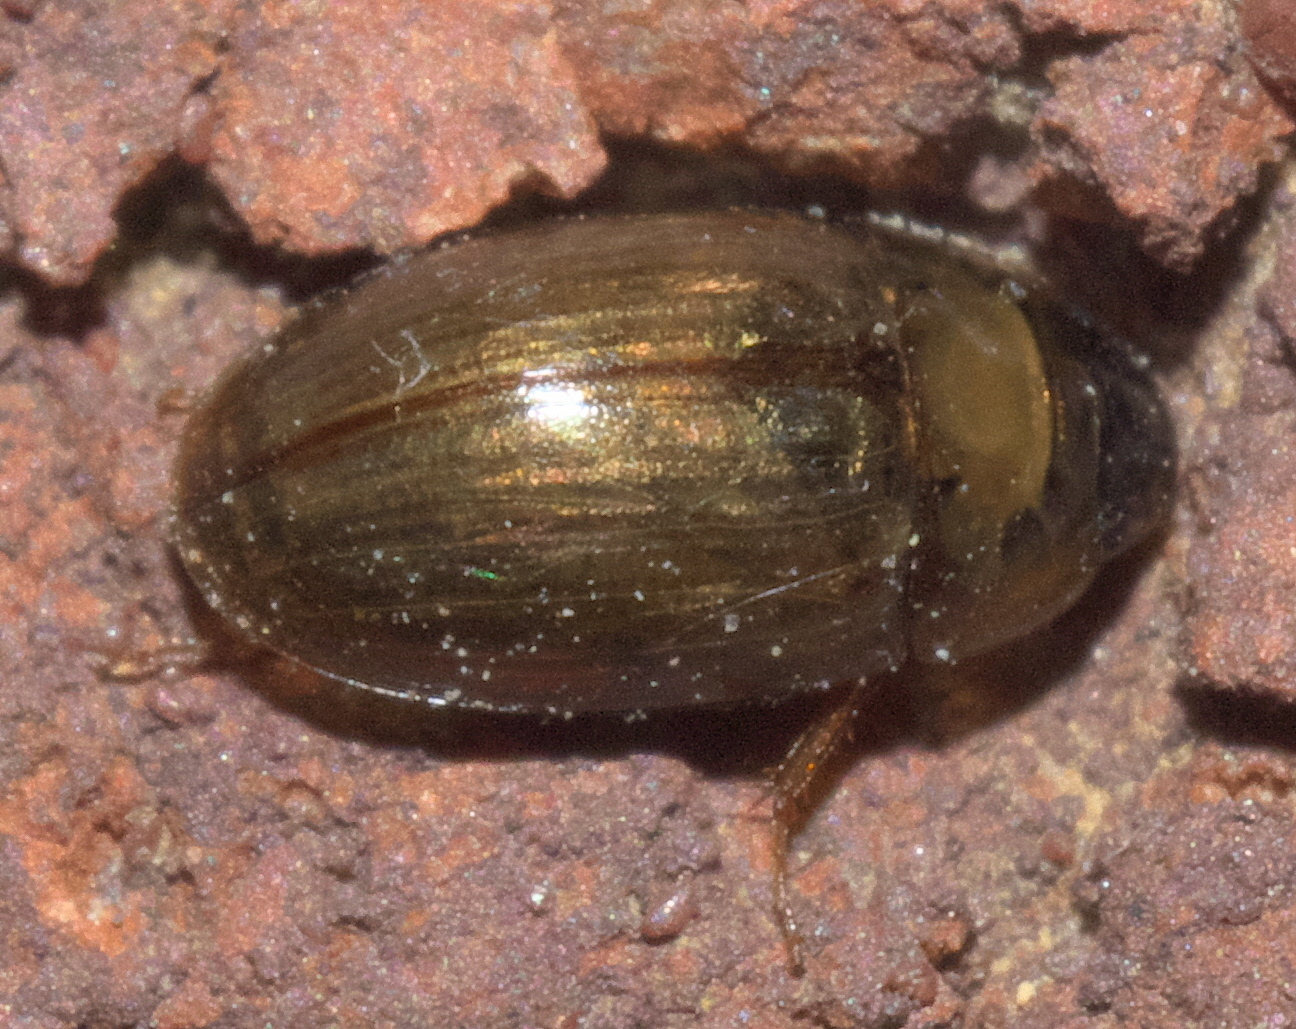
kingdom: Animalia
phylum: Arthropoda
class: Insecta
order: Coleoptera
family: Hydrophilidae
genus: Enochrus
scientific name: Enochrus
